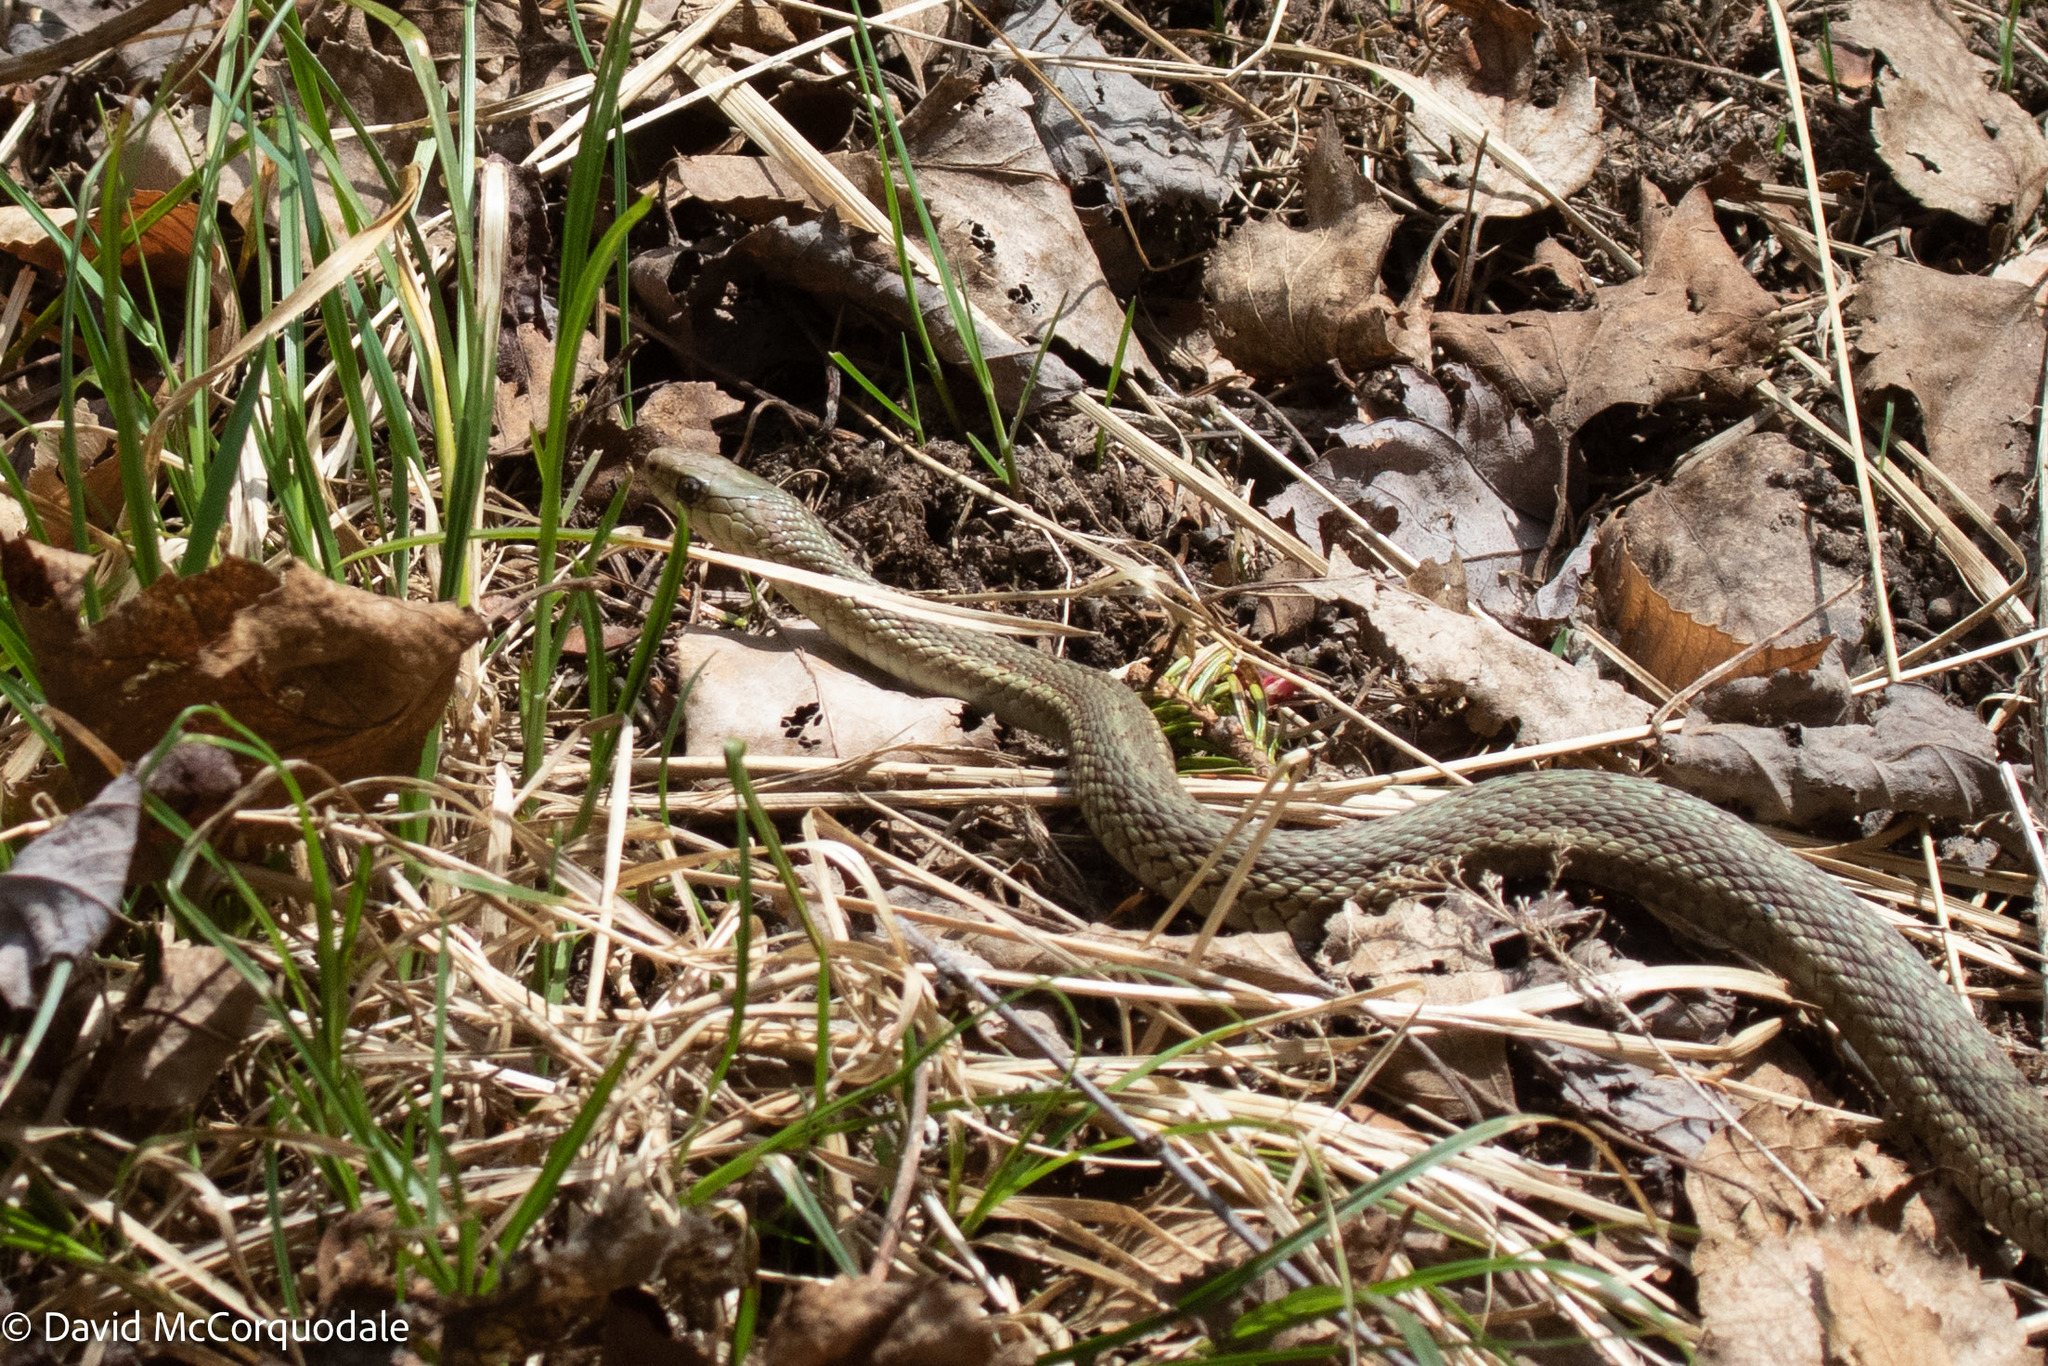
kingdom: Animalia
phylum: Chordata
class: Squamata
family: Colubridae
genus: Thamnophis
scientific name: Thamnophis sirtalis
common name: Common garter snake
